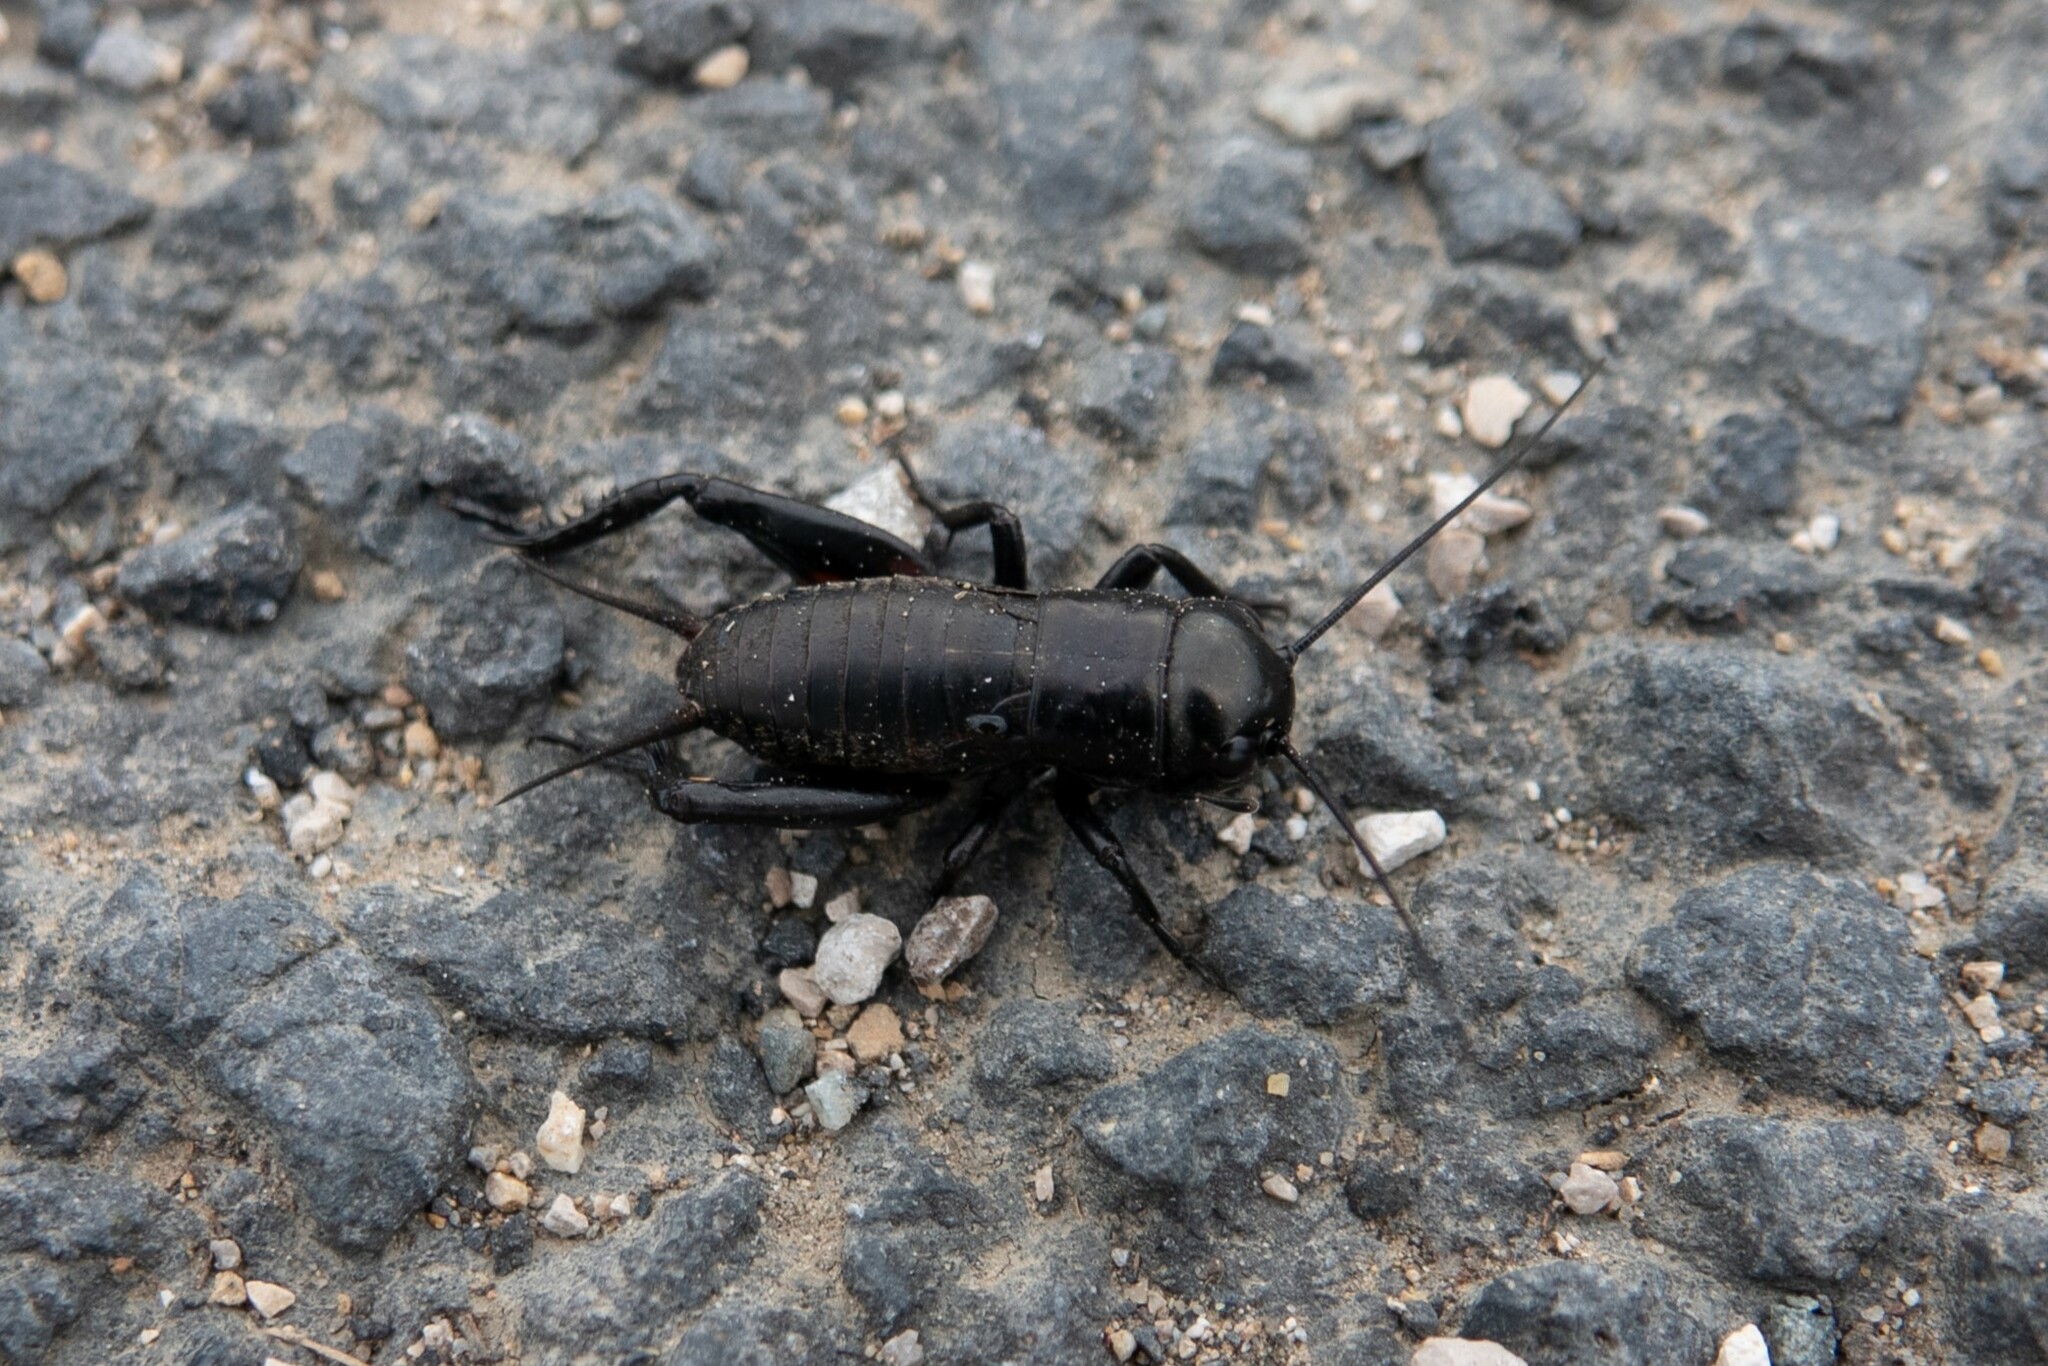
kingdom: Animalia
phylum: Arthropoda
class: Insecta
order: Orthoptera
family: Gryllidae
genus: Gryllus
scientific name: Gryllus bimaculatus
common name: Two-spotted cricket
